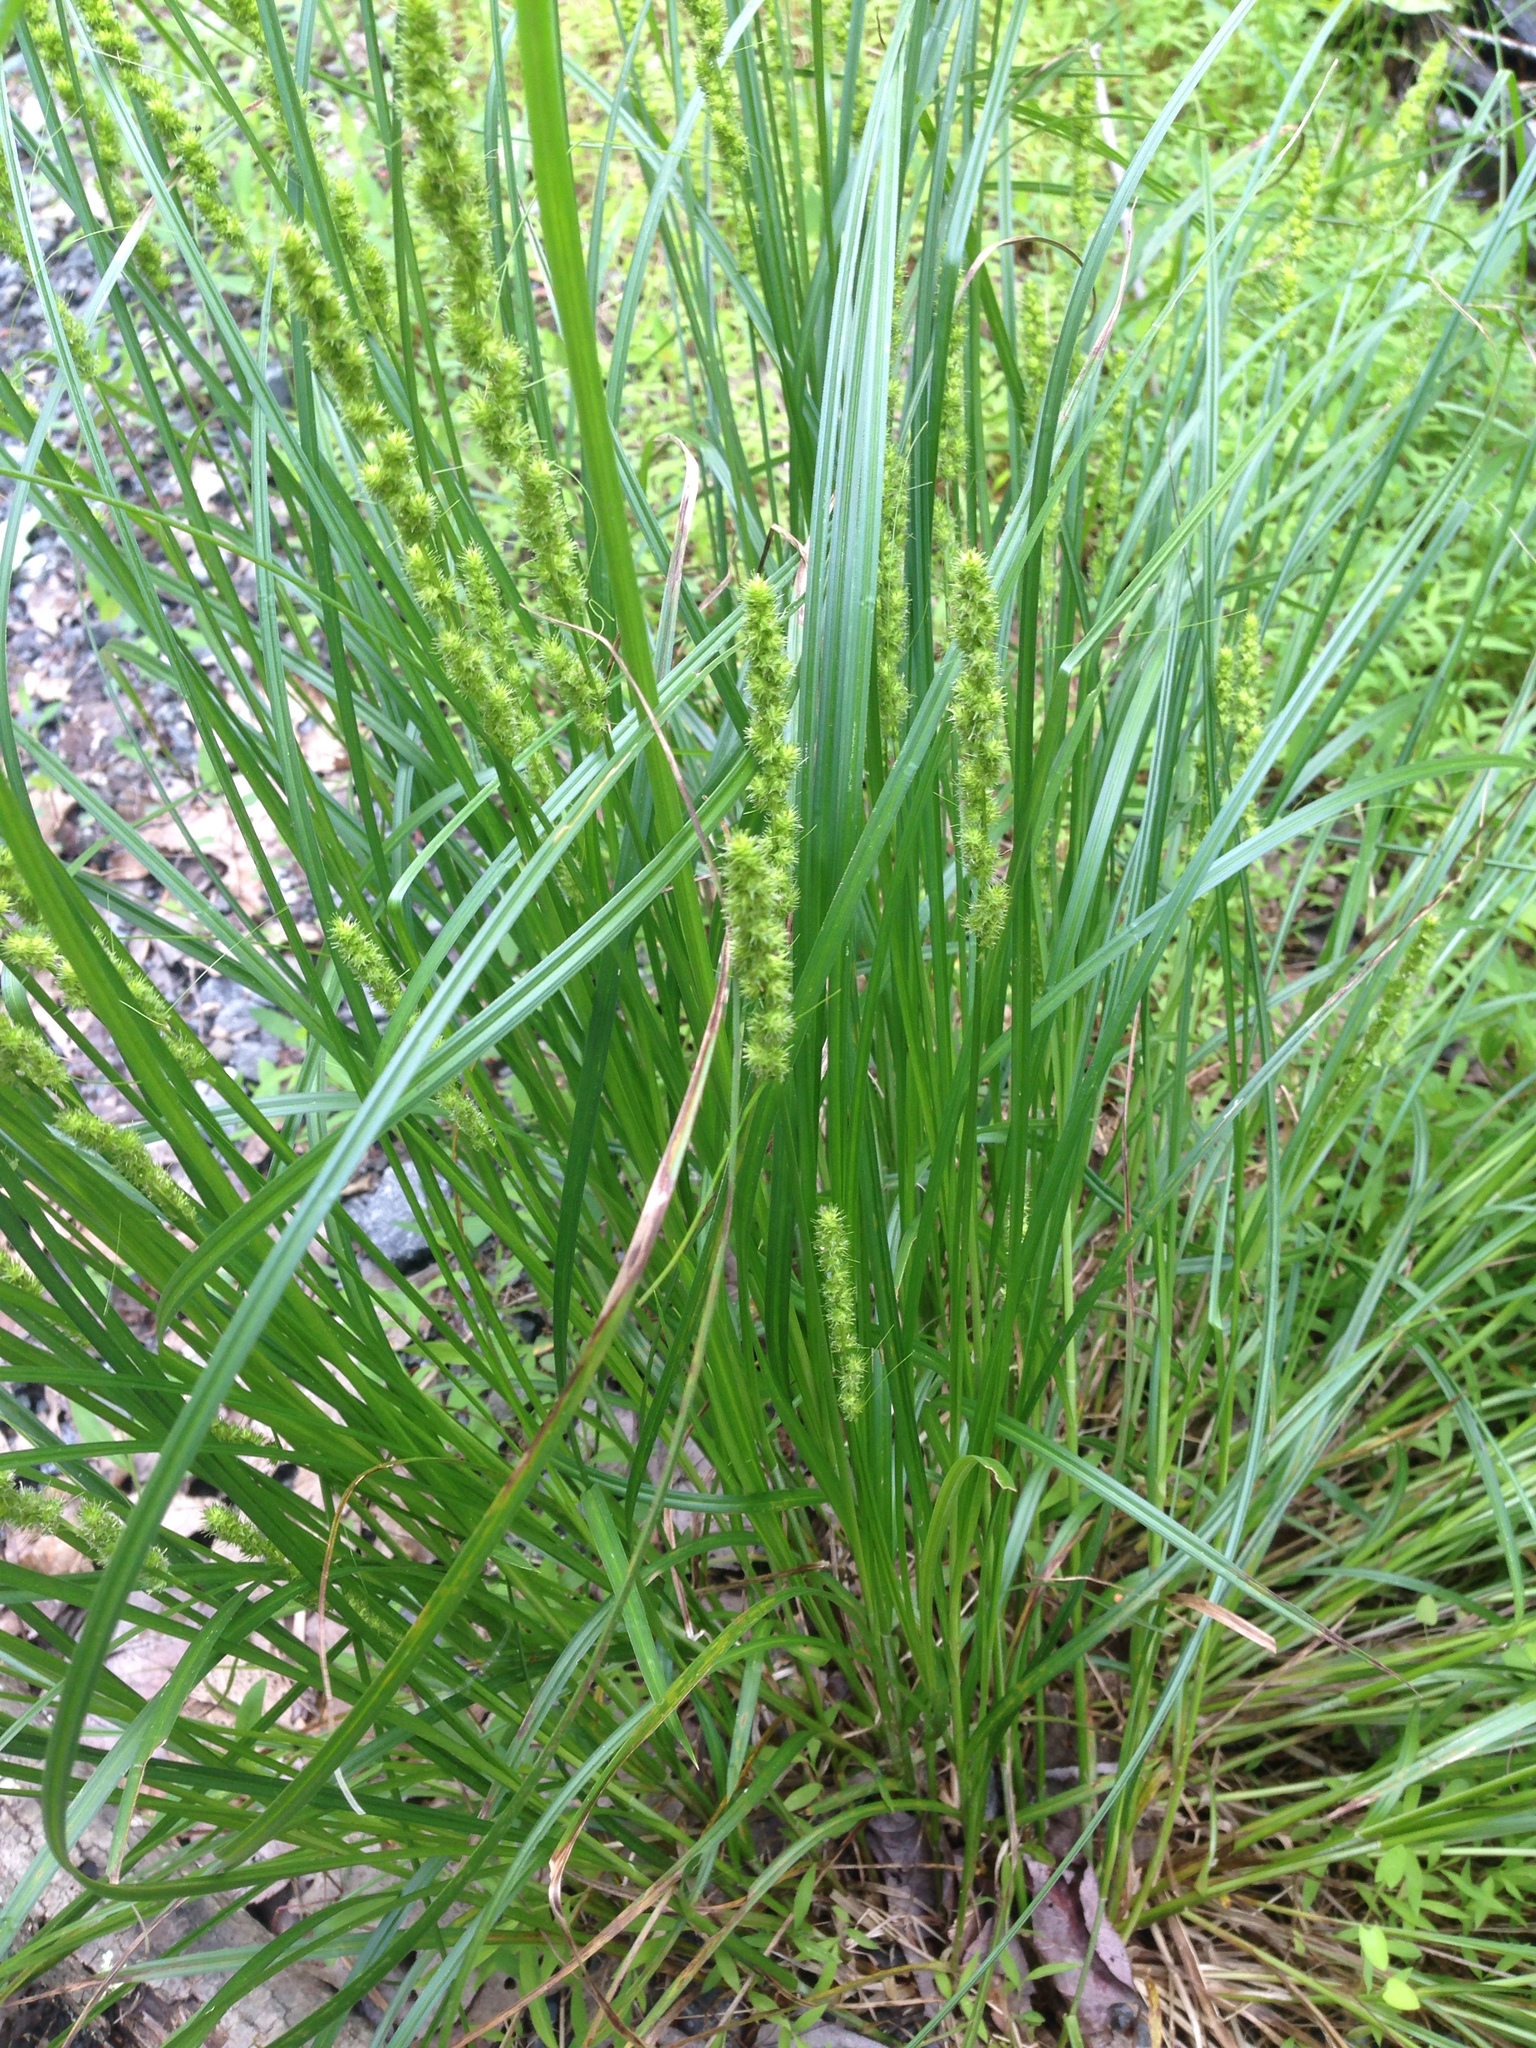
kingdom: Plantae
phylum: Tracheophyta
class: Liliopsida
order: Poales
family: Cyperaceae
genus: Carex
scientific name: Carex vulpinoidea
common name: American fox-sedge
